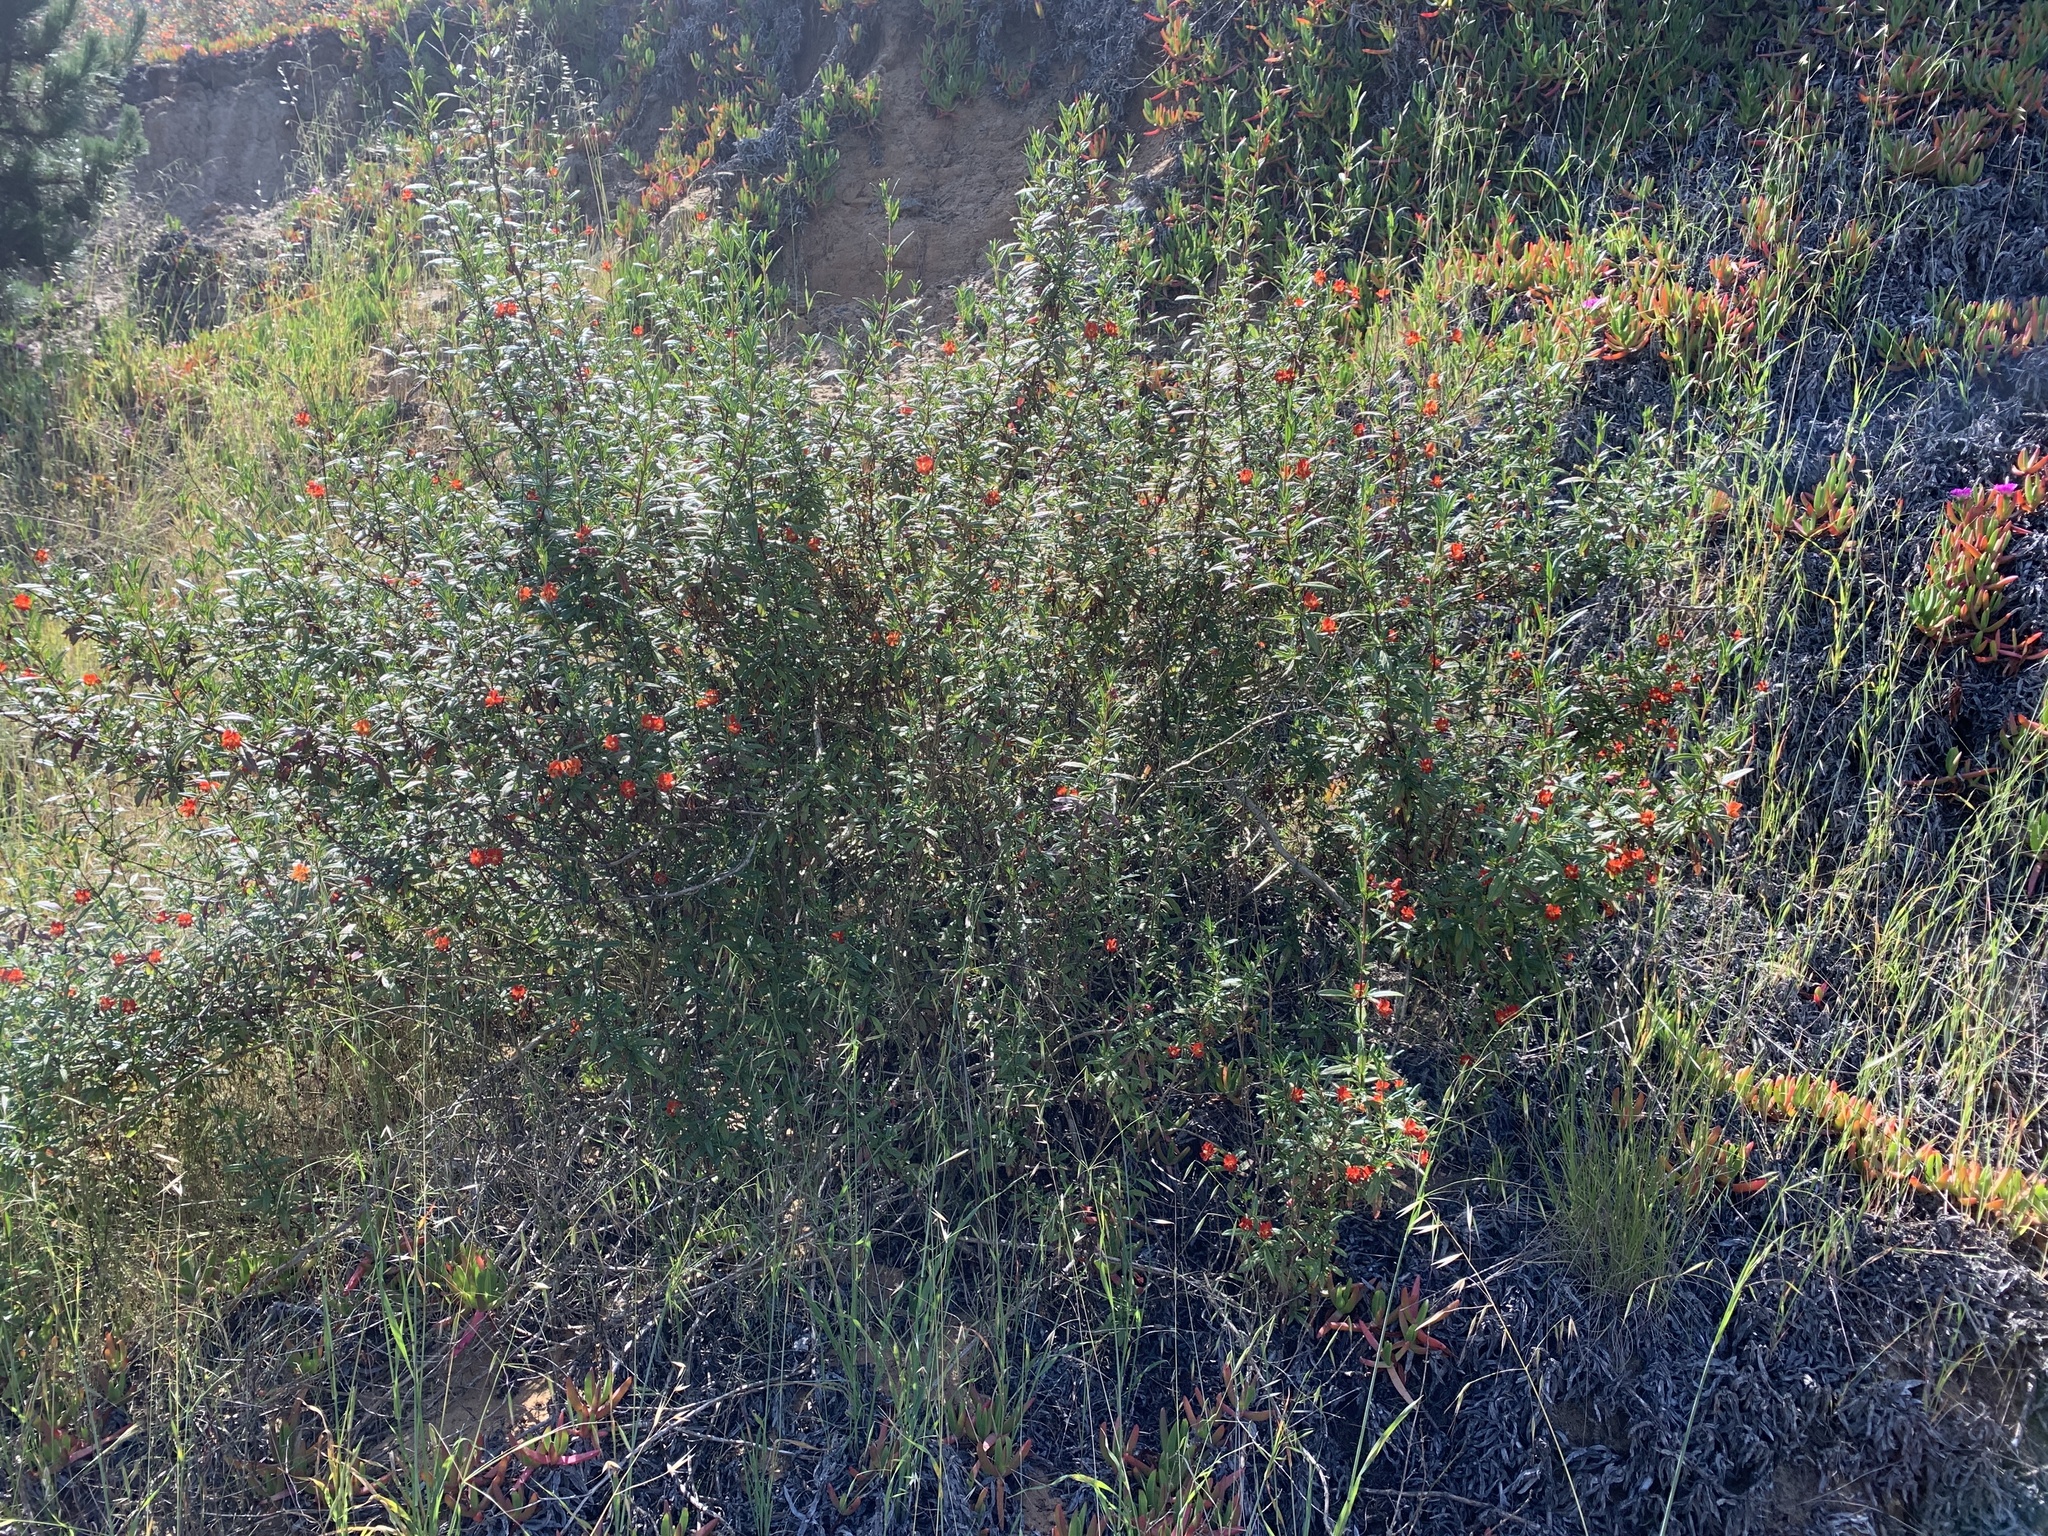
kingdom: Plantae
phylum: Tracheophyta
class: Magnoliopsida
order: Lamiales
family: Phrymaceae
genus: Diplacus
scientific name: Diplacus puniceus
